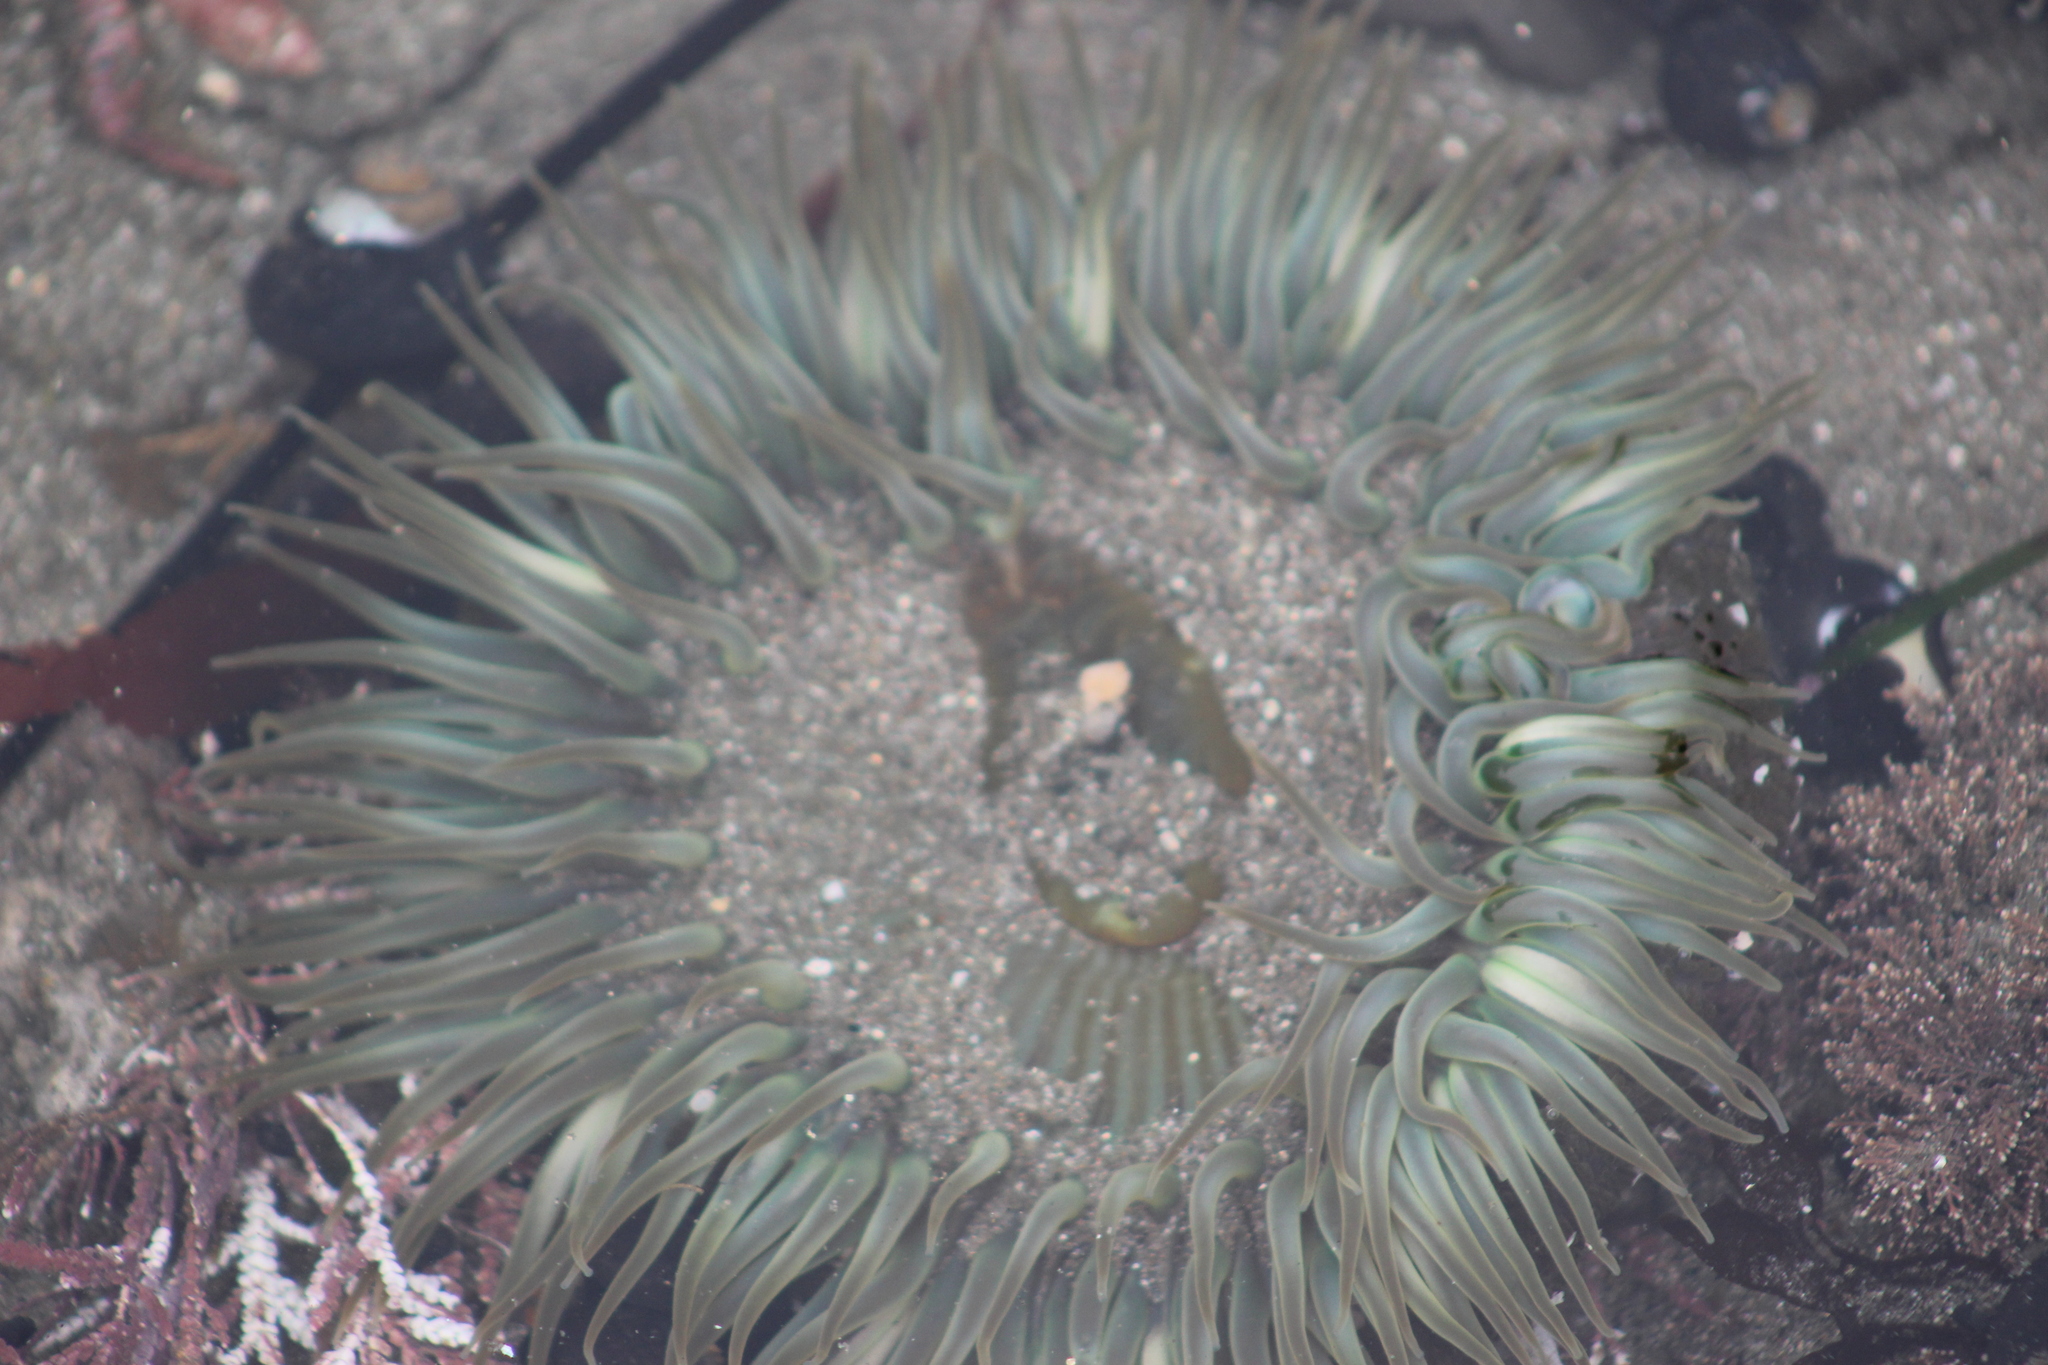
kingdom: Animalia
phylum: Cnidaria
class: Anthozoa
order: Actiniaria
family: Actiniidae
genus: Anthopleura
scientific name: Anthopleura sola
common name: Sun anemone
